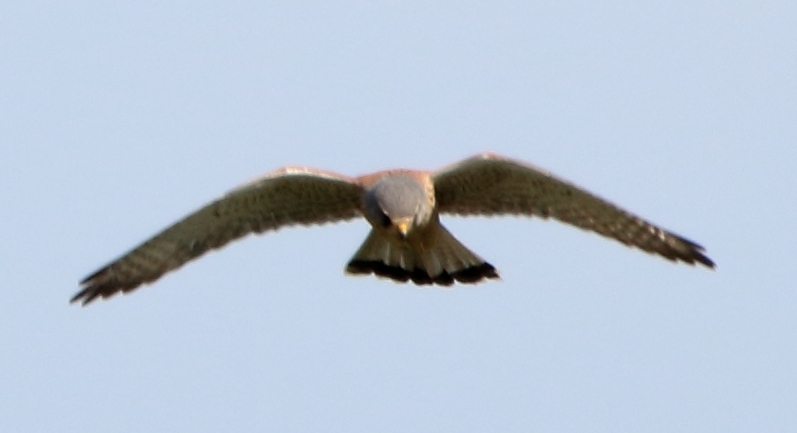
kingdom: Animalia
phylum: Chordata
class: Aves
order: Falconiformes
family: Falconidae
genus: Falco
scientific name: Falco tinnunculus
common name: Common kestrel
